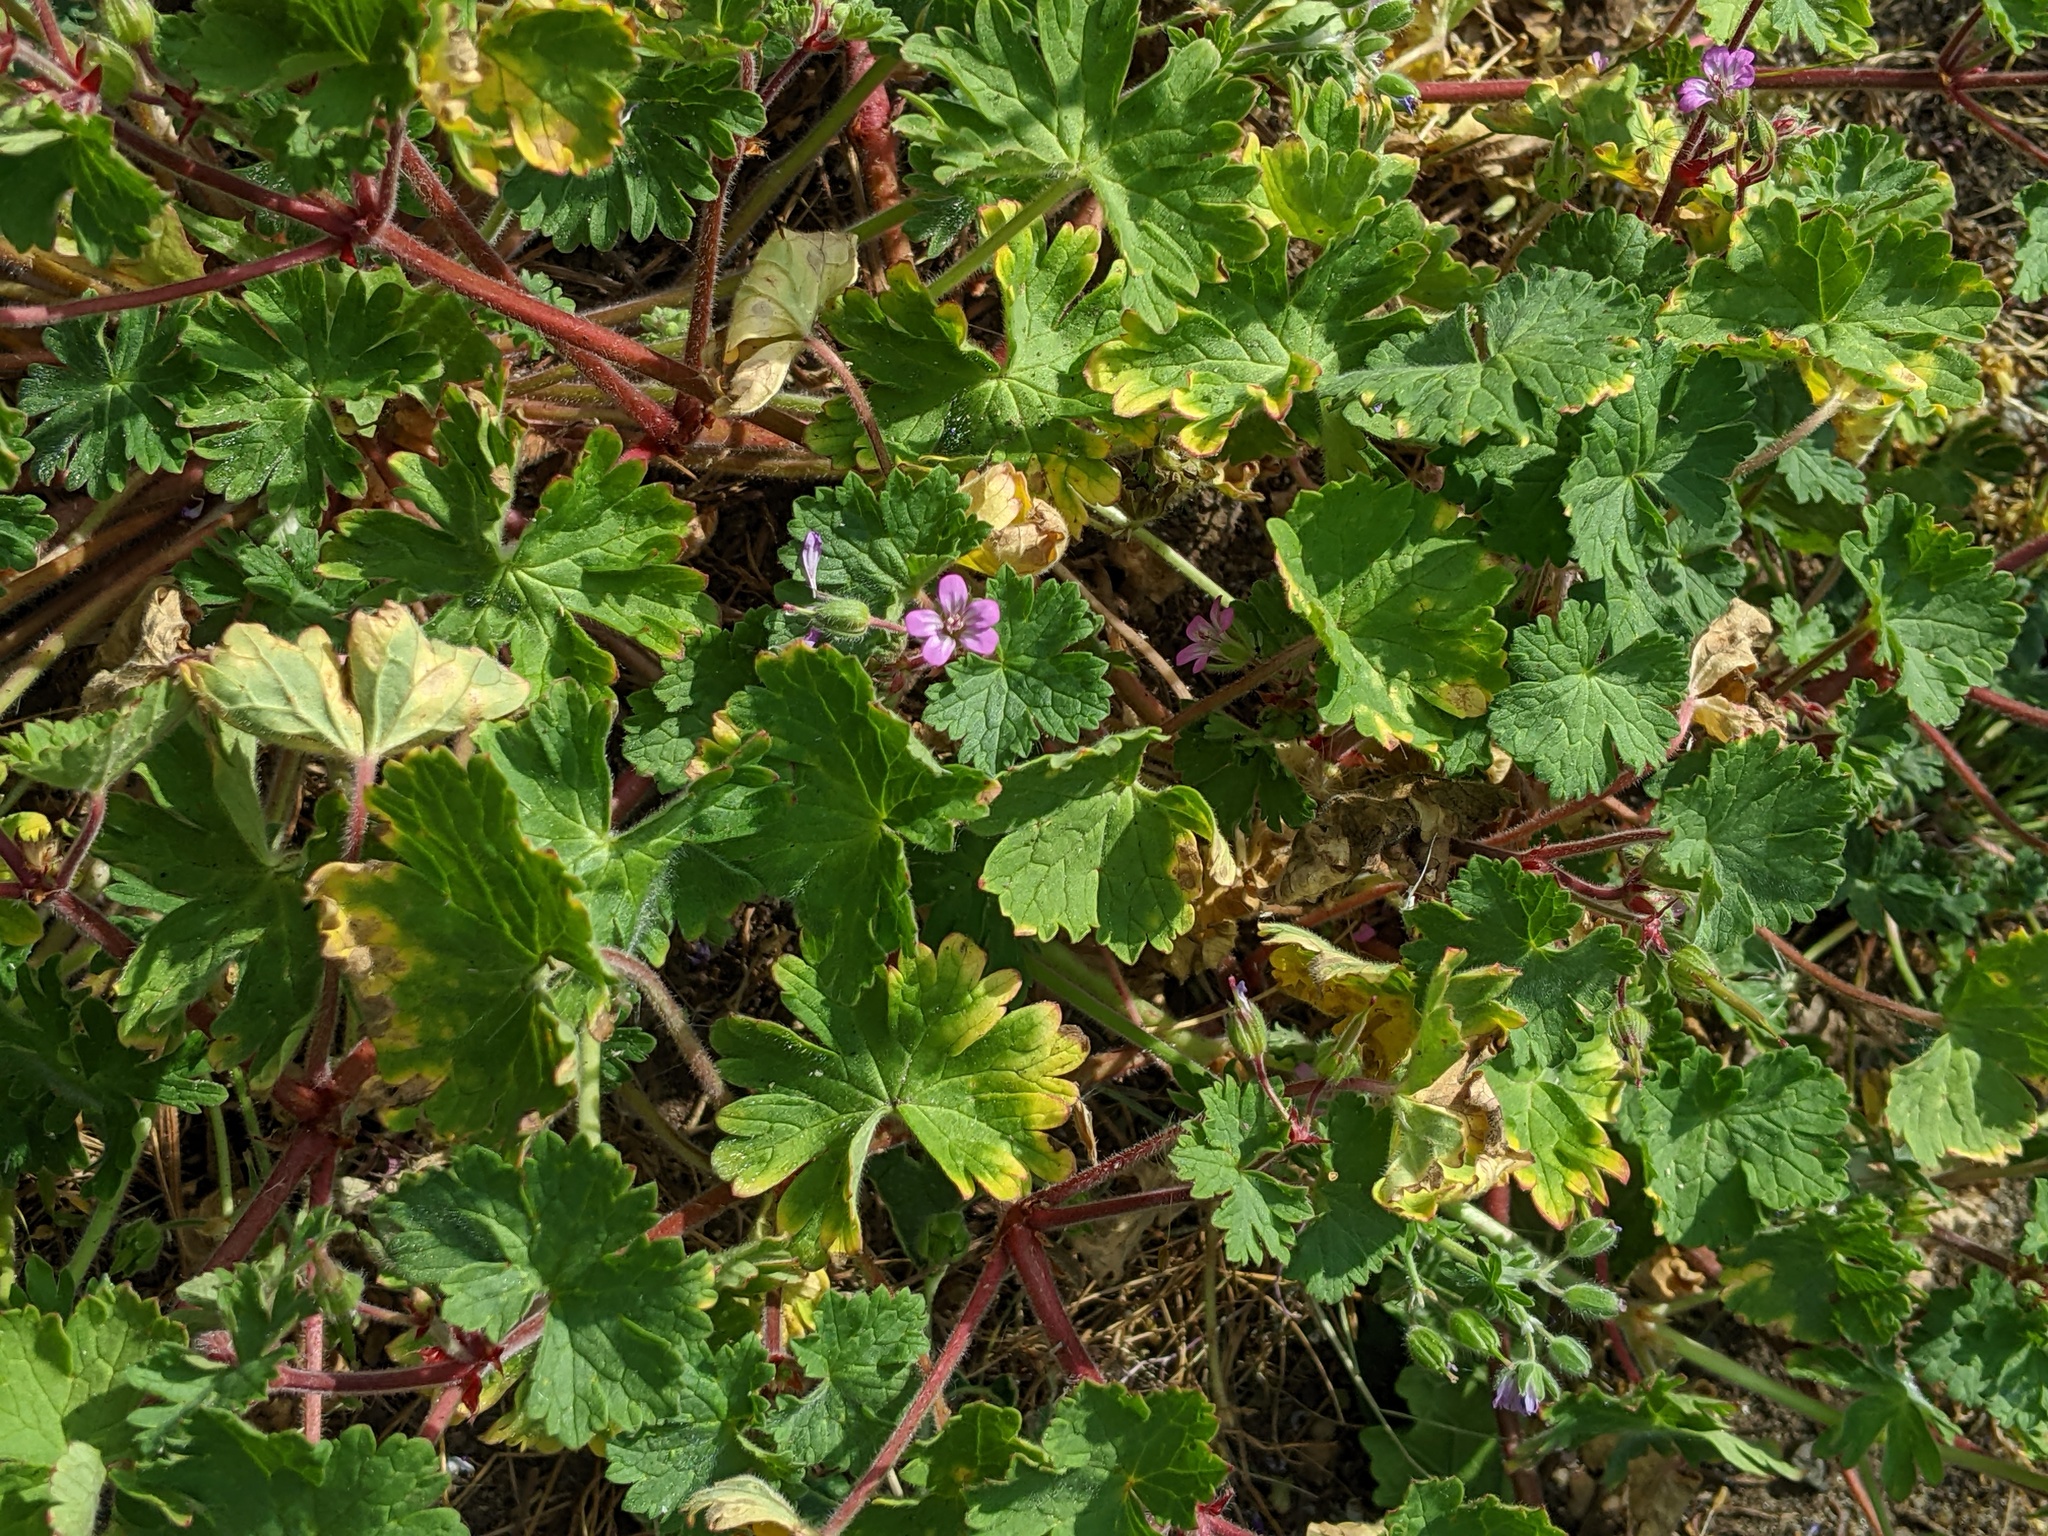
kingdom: Plantae
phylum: Tracheophyta
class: Magnoliopsida
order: Geraniales
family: Geraniaceae
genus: Geranium
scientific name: Geranium rotundifolium
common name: Round-leaved crane's-bill
